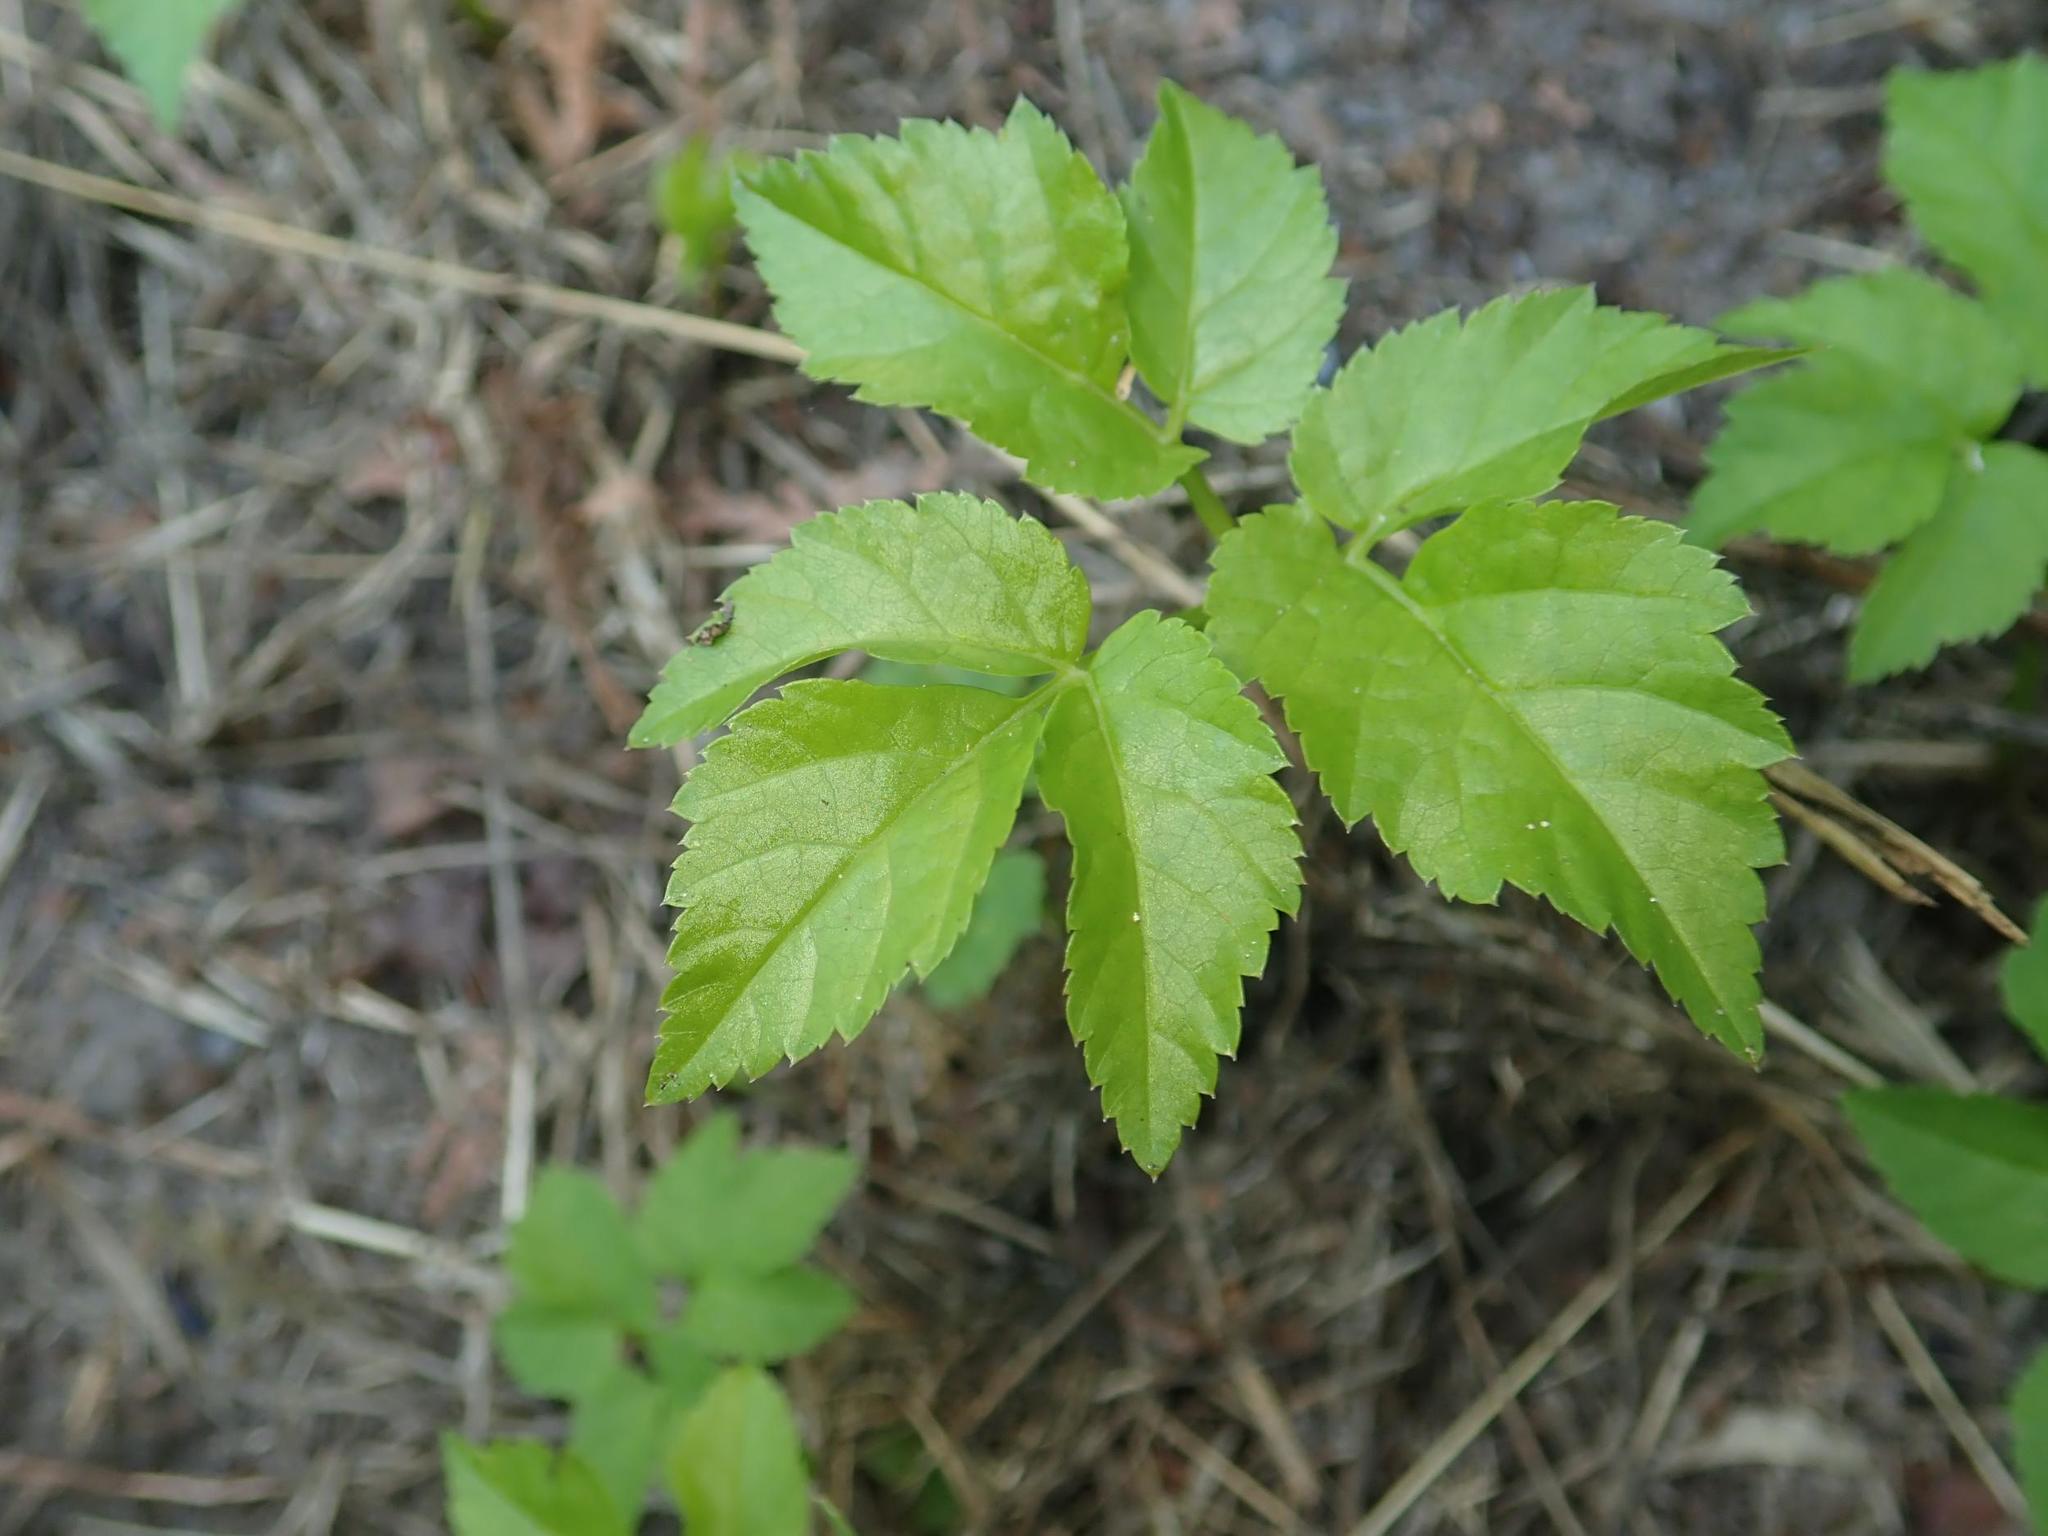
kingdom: Plantae
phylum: Tracheophyta
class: Magnoliopsida
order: Apiales
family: Apiaceae
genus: Aegopodium
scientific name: Aegopodium podagraria
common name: Ground-elder
